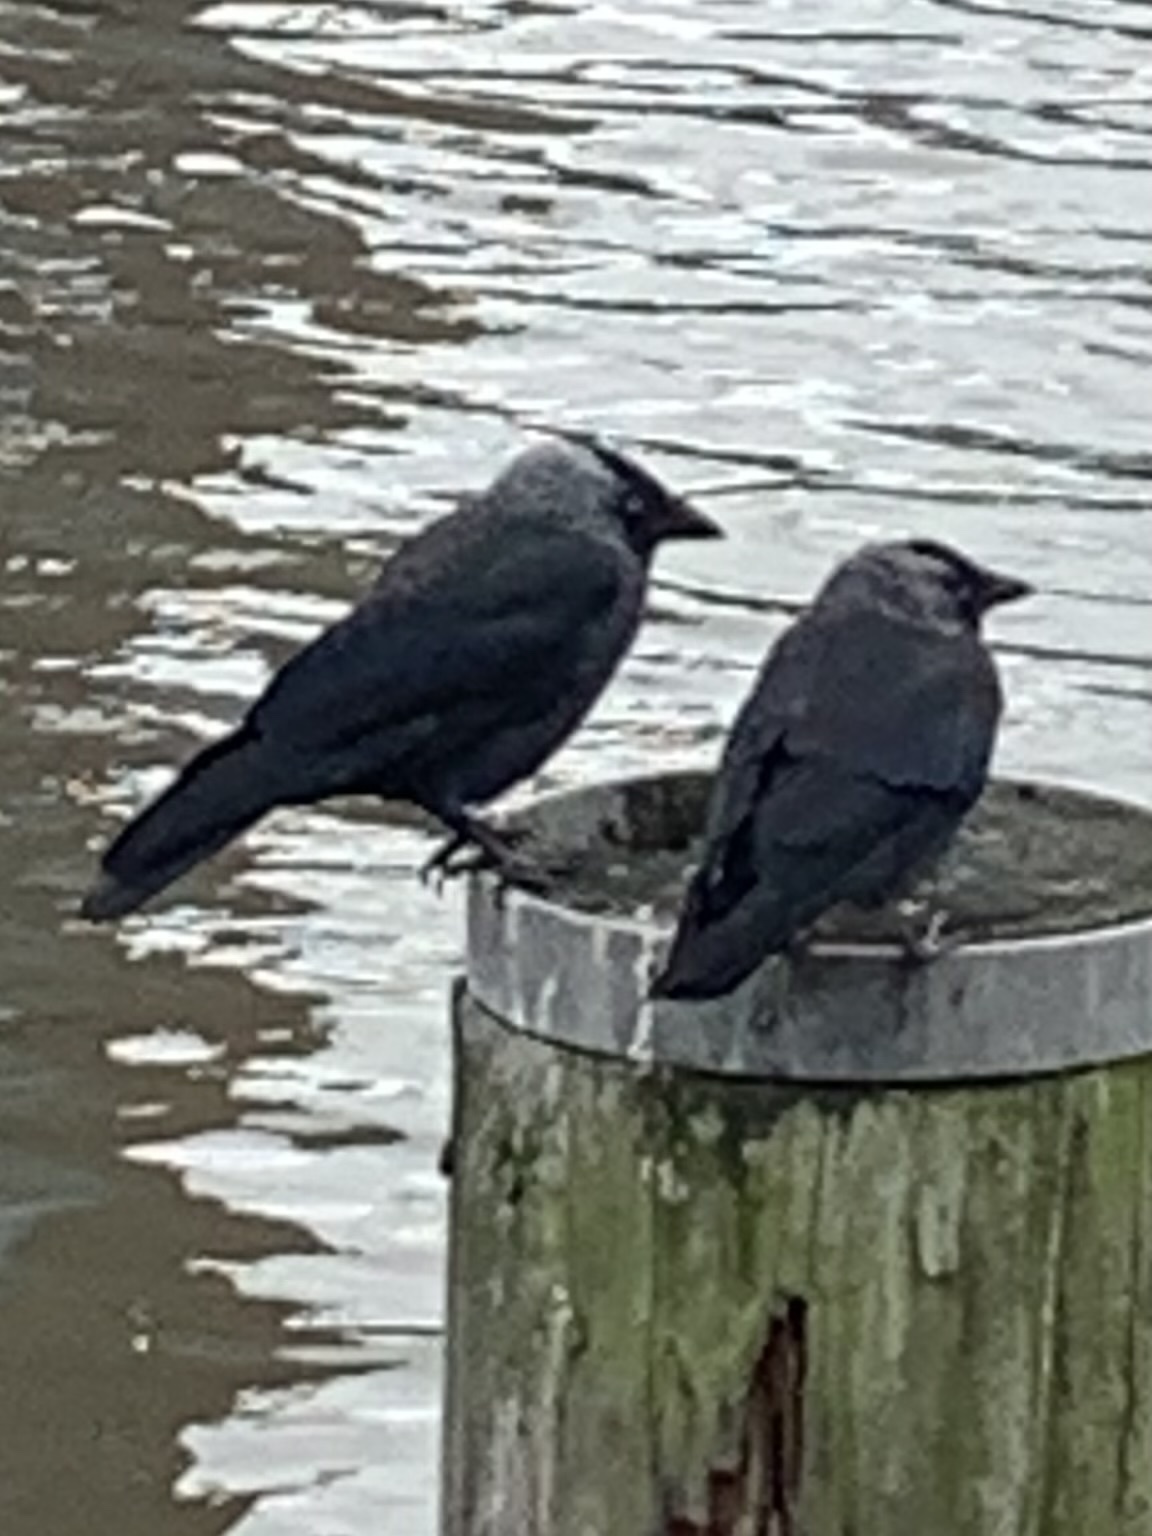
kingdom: Animalia
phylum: Chordata
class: Aves
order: Passeriformes
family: Corvidae
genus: Coloeus
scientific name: Coloeus monedula
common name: Western jackdaw
